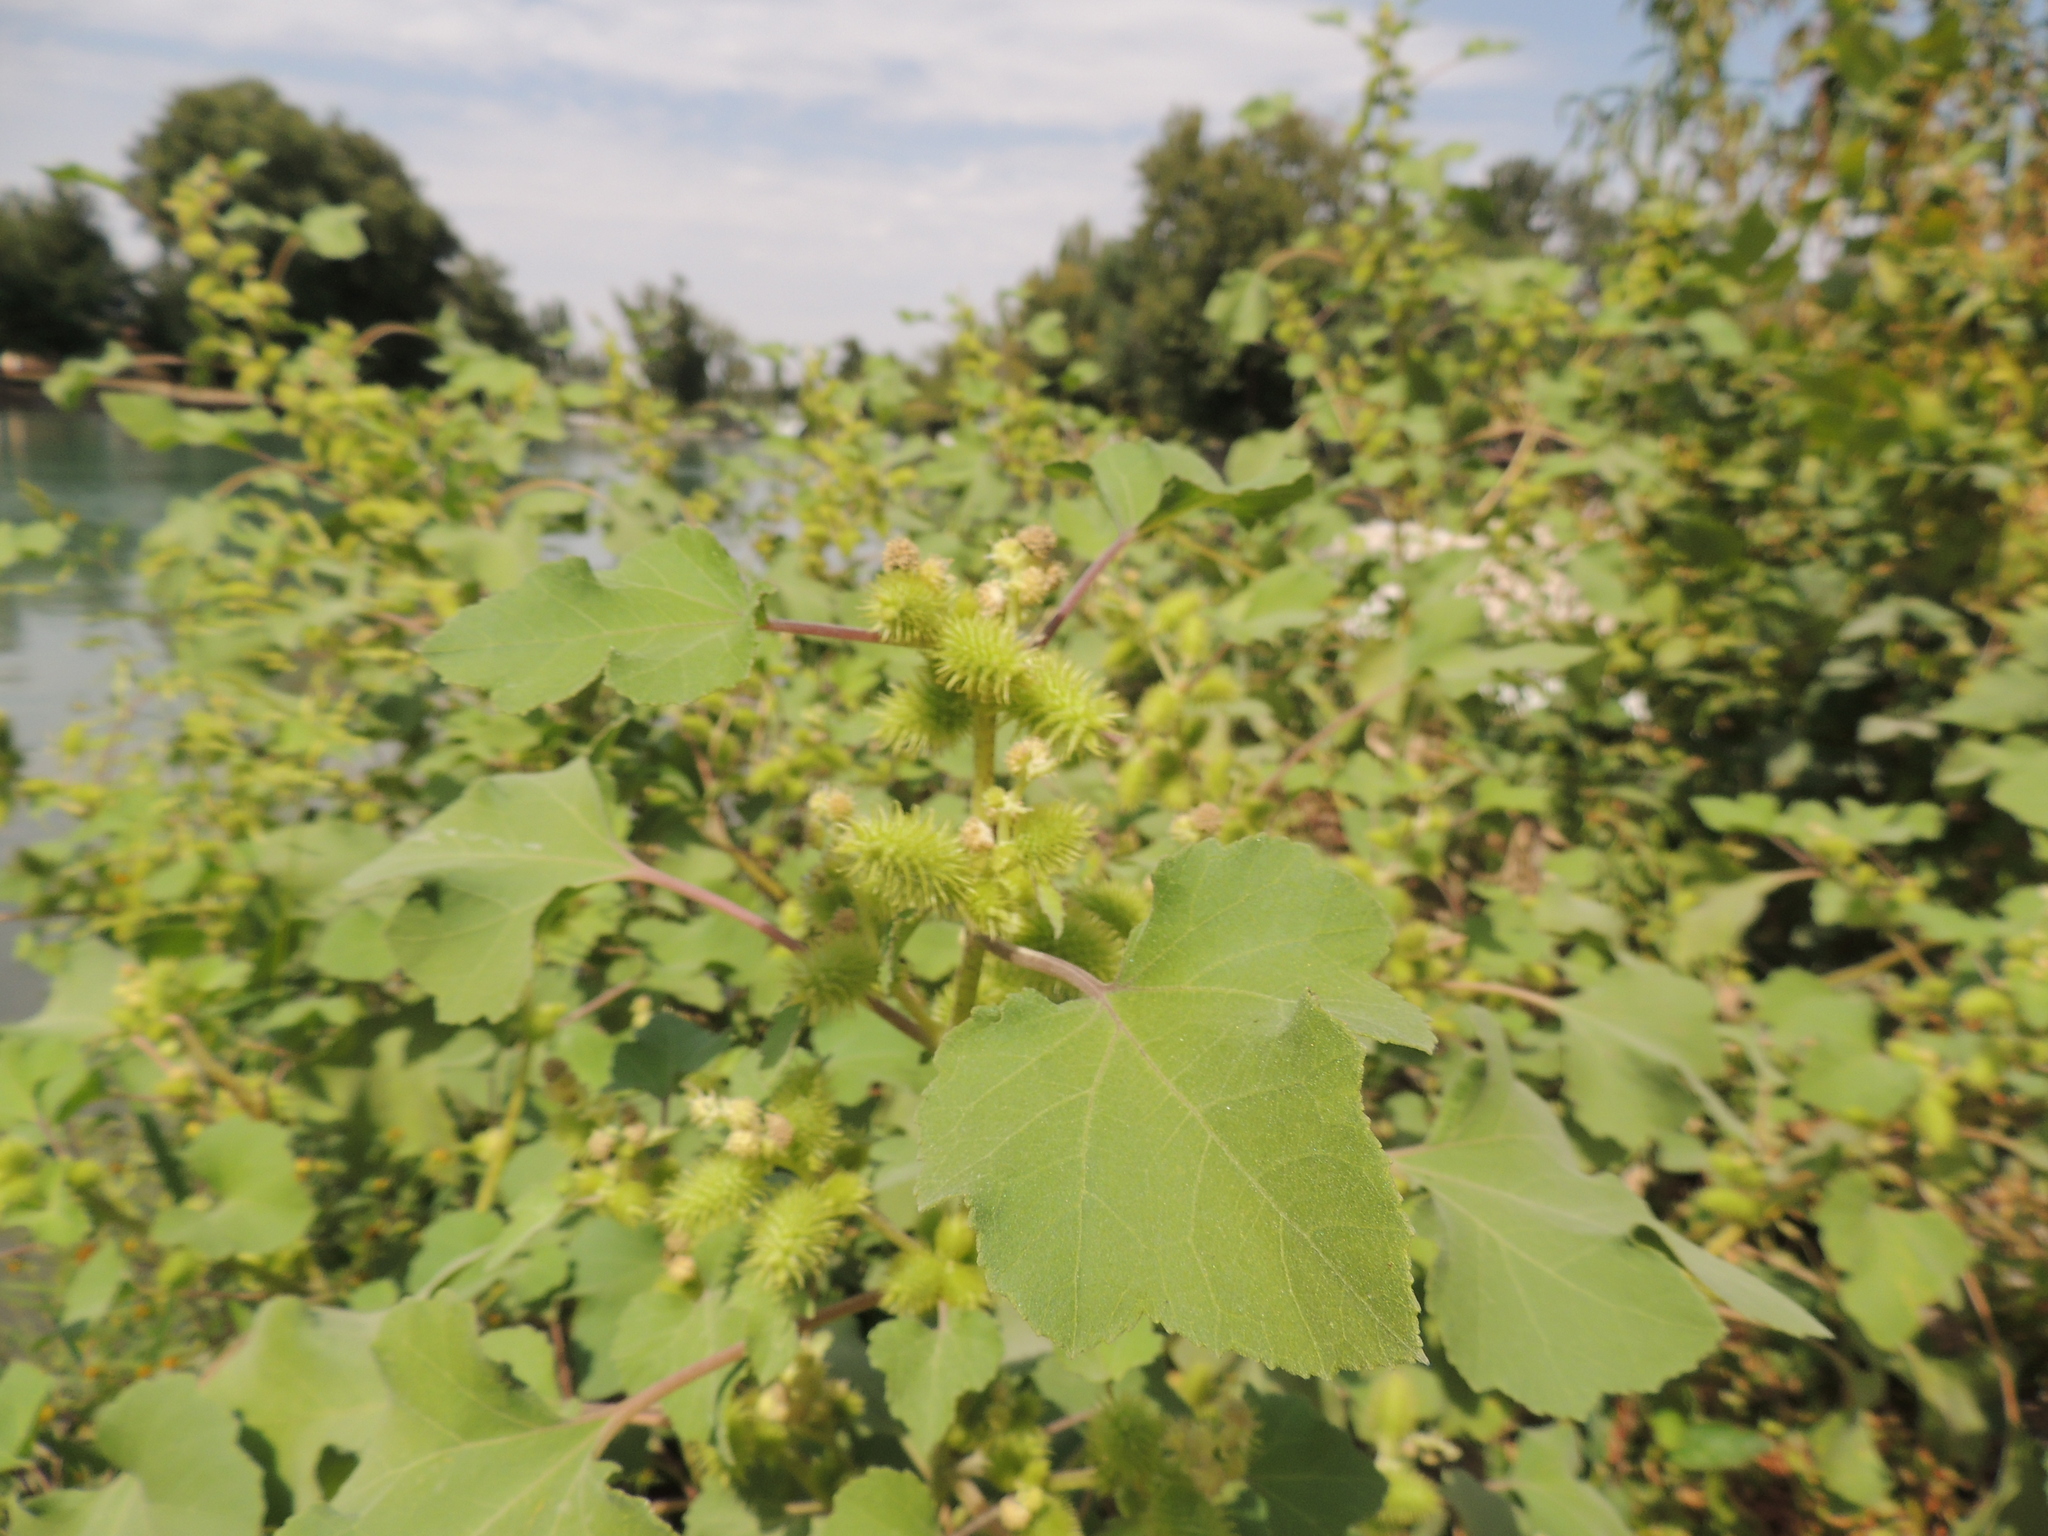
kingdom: Plantae
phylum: Tracheophyta
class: Magnoliopsida
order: Asterales
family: Asteraceae
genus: Xanthium
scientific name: Xanthium orientale
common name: Californian burr
